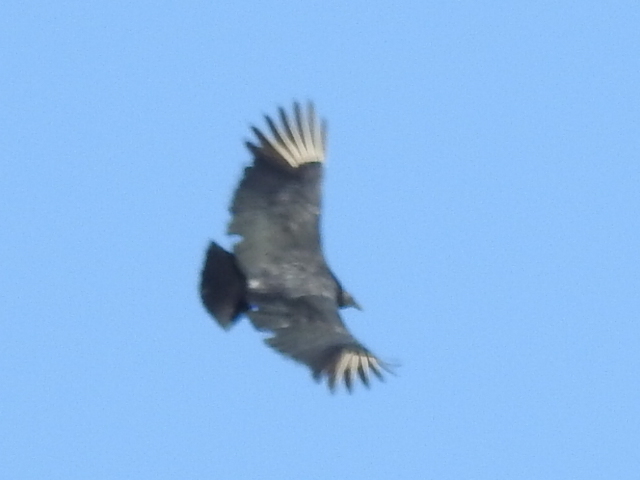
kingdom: Animalia
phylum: Chordata
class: Aves
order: Accipitriformes
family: Cathartidae
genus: Coragyps
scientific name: Coragyps atratus
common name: Black vulture
